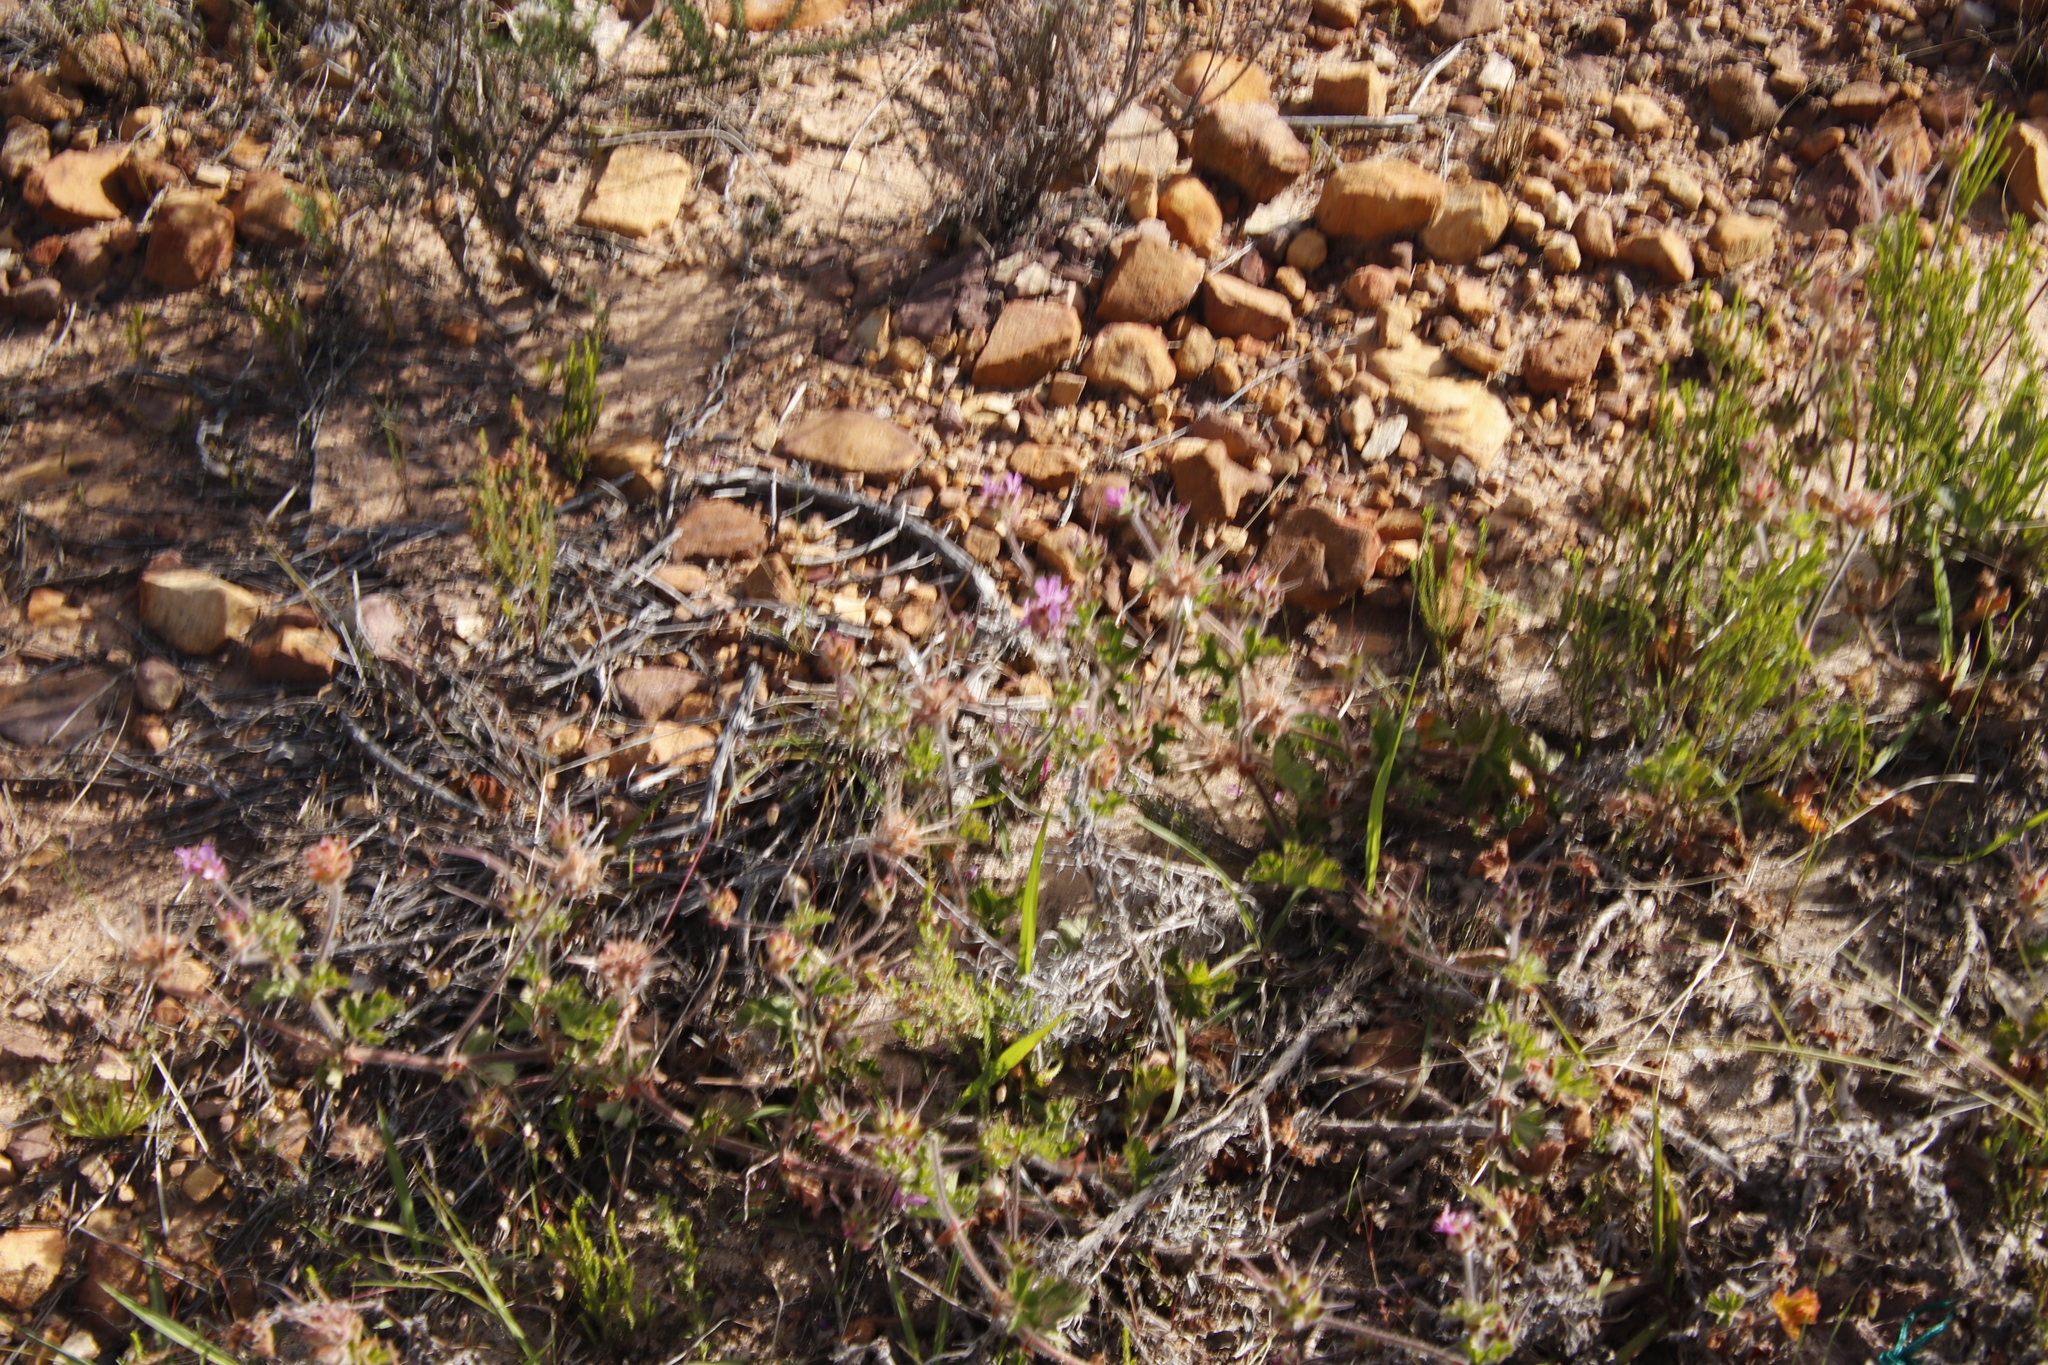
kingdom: Plantae
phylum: Tracheophyta
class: Magnoliopsida
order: Geraniales
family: Geraniaceae
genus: Pelargonium
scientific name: Pelargonium capitatum
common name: Rose scented geranium
